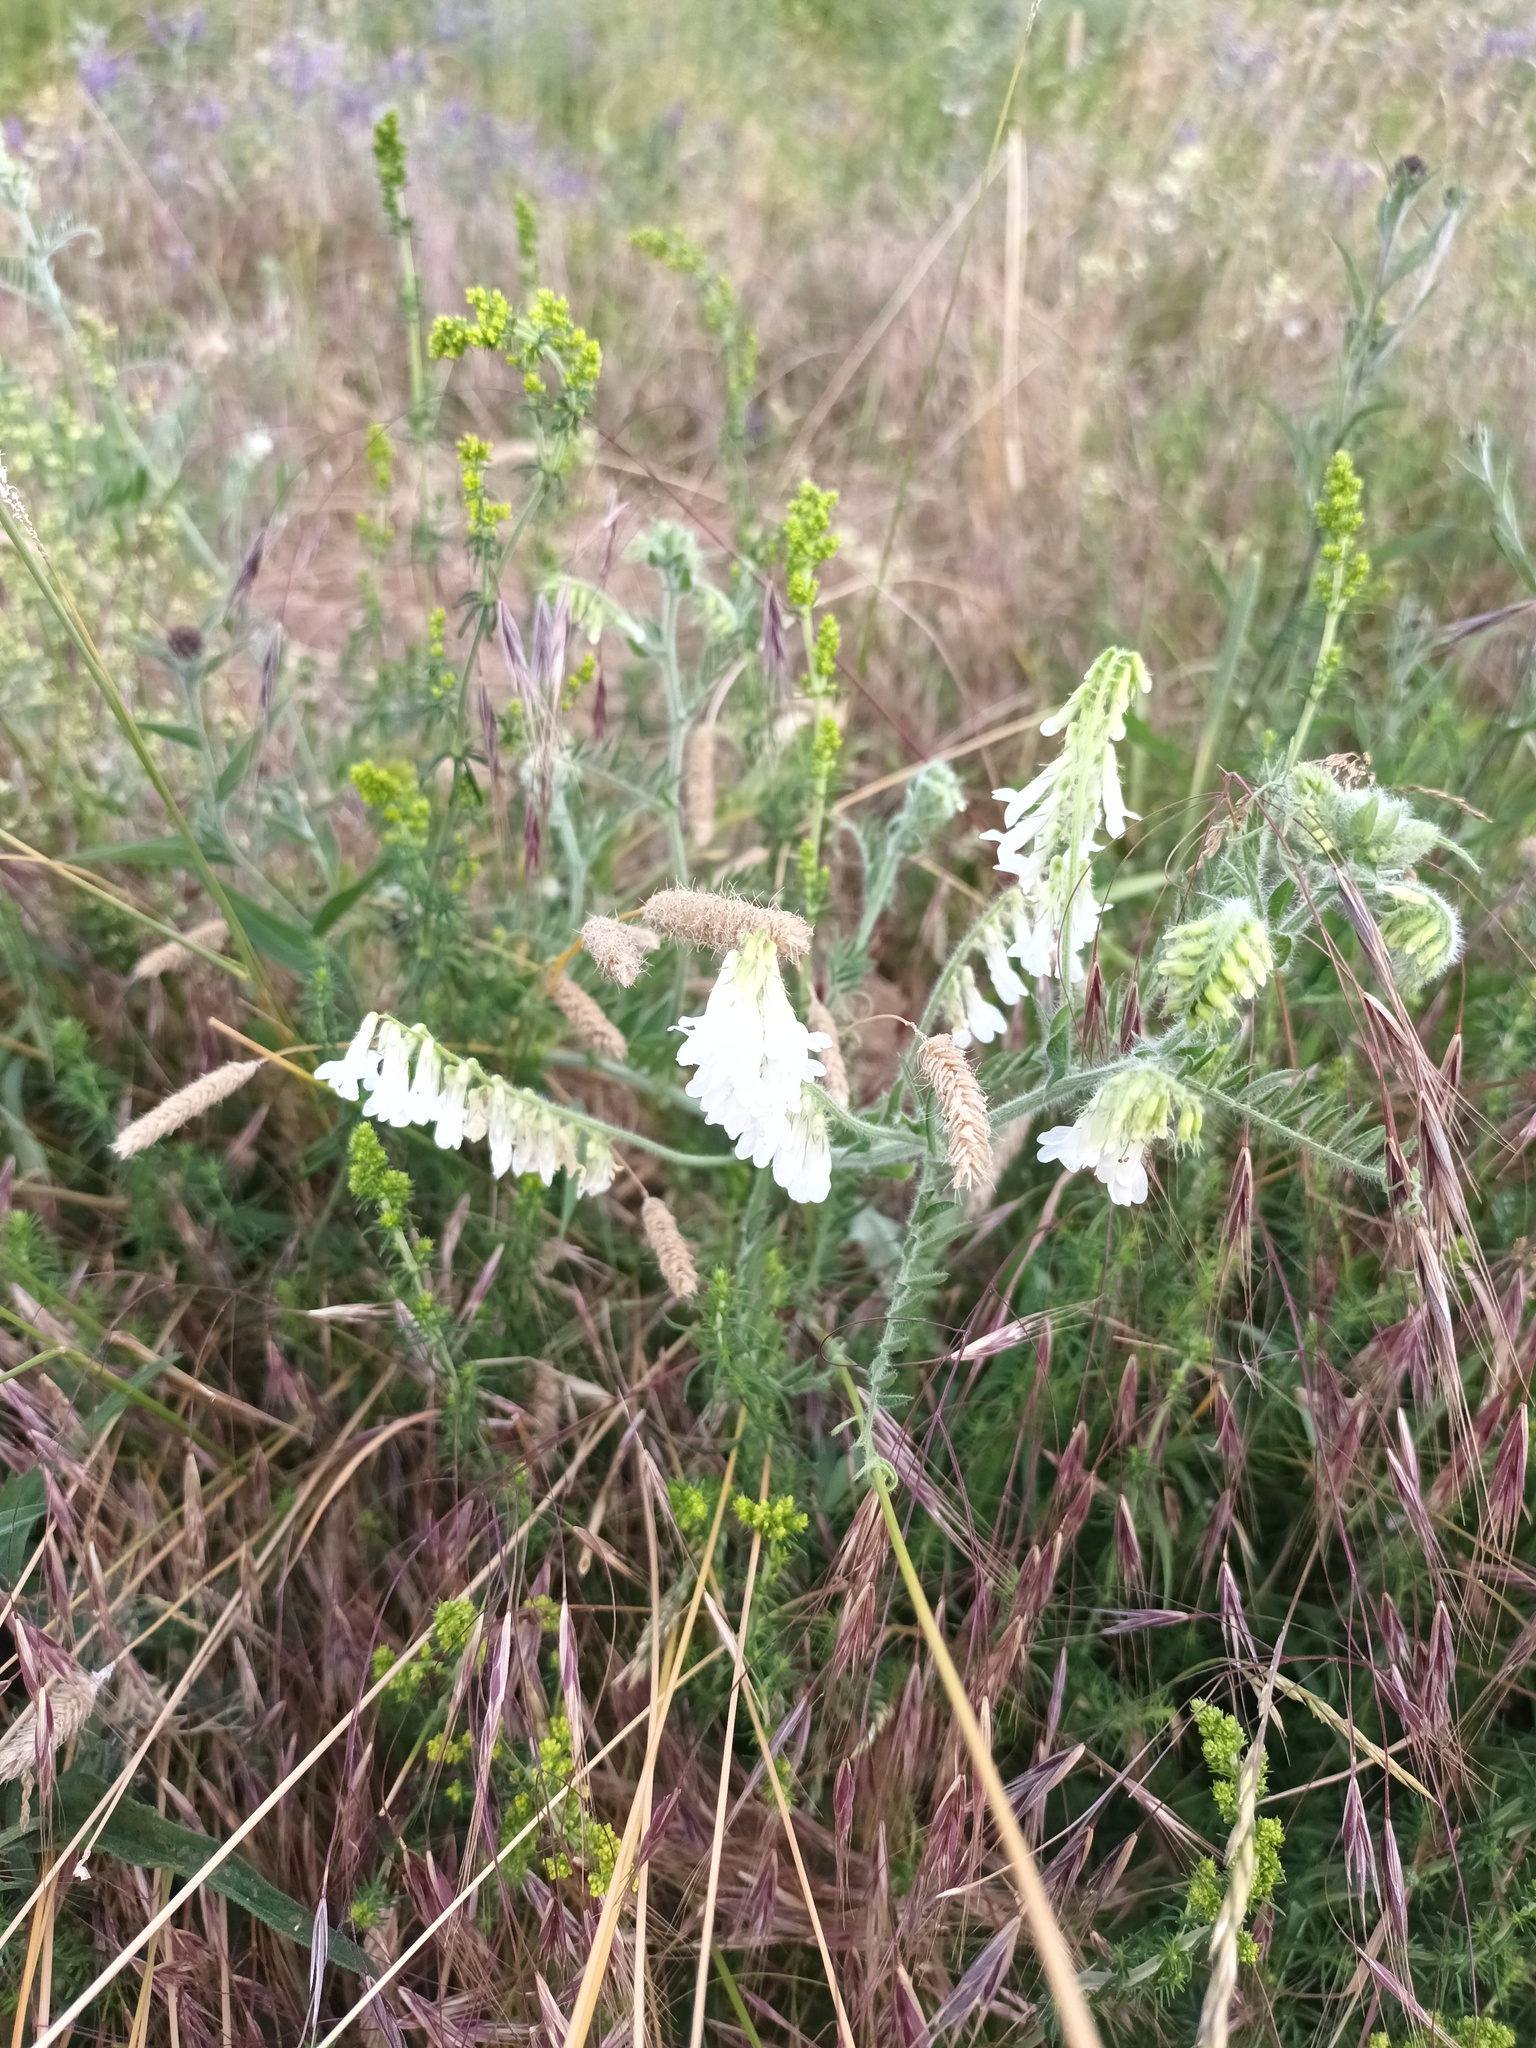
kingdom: Plantae
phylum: Tracheophyta
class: Magnoliopsida
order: Fabales
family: Fabaceae
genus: Vicia
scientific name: Vicia villosa
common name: Fodder vetch
